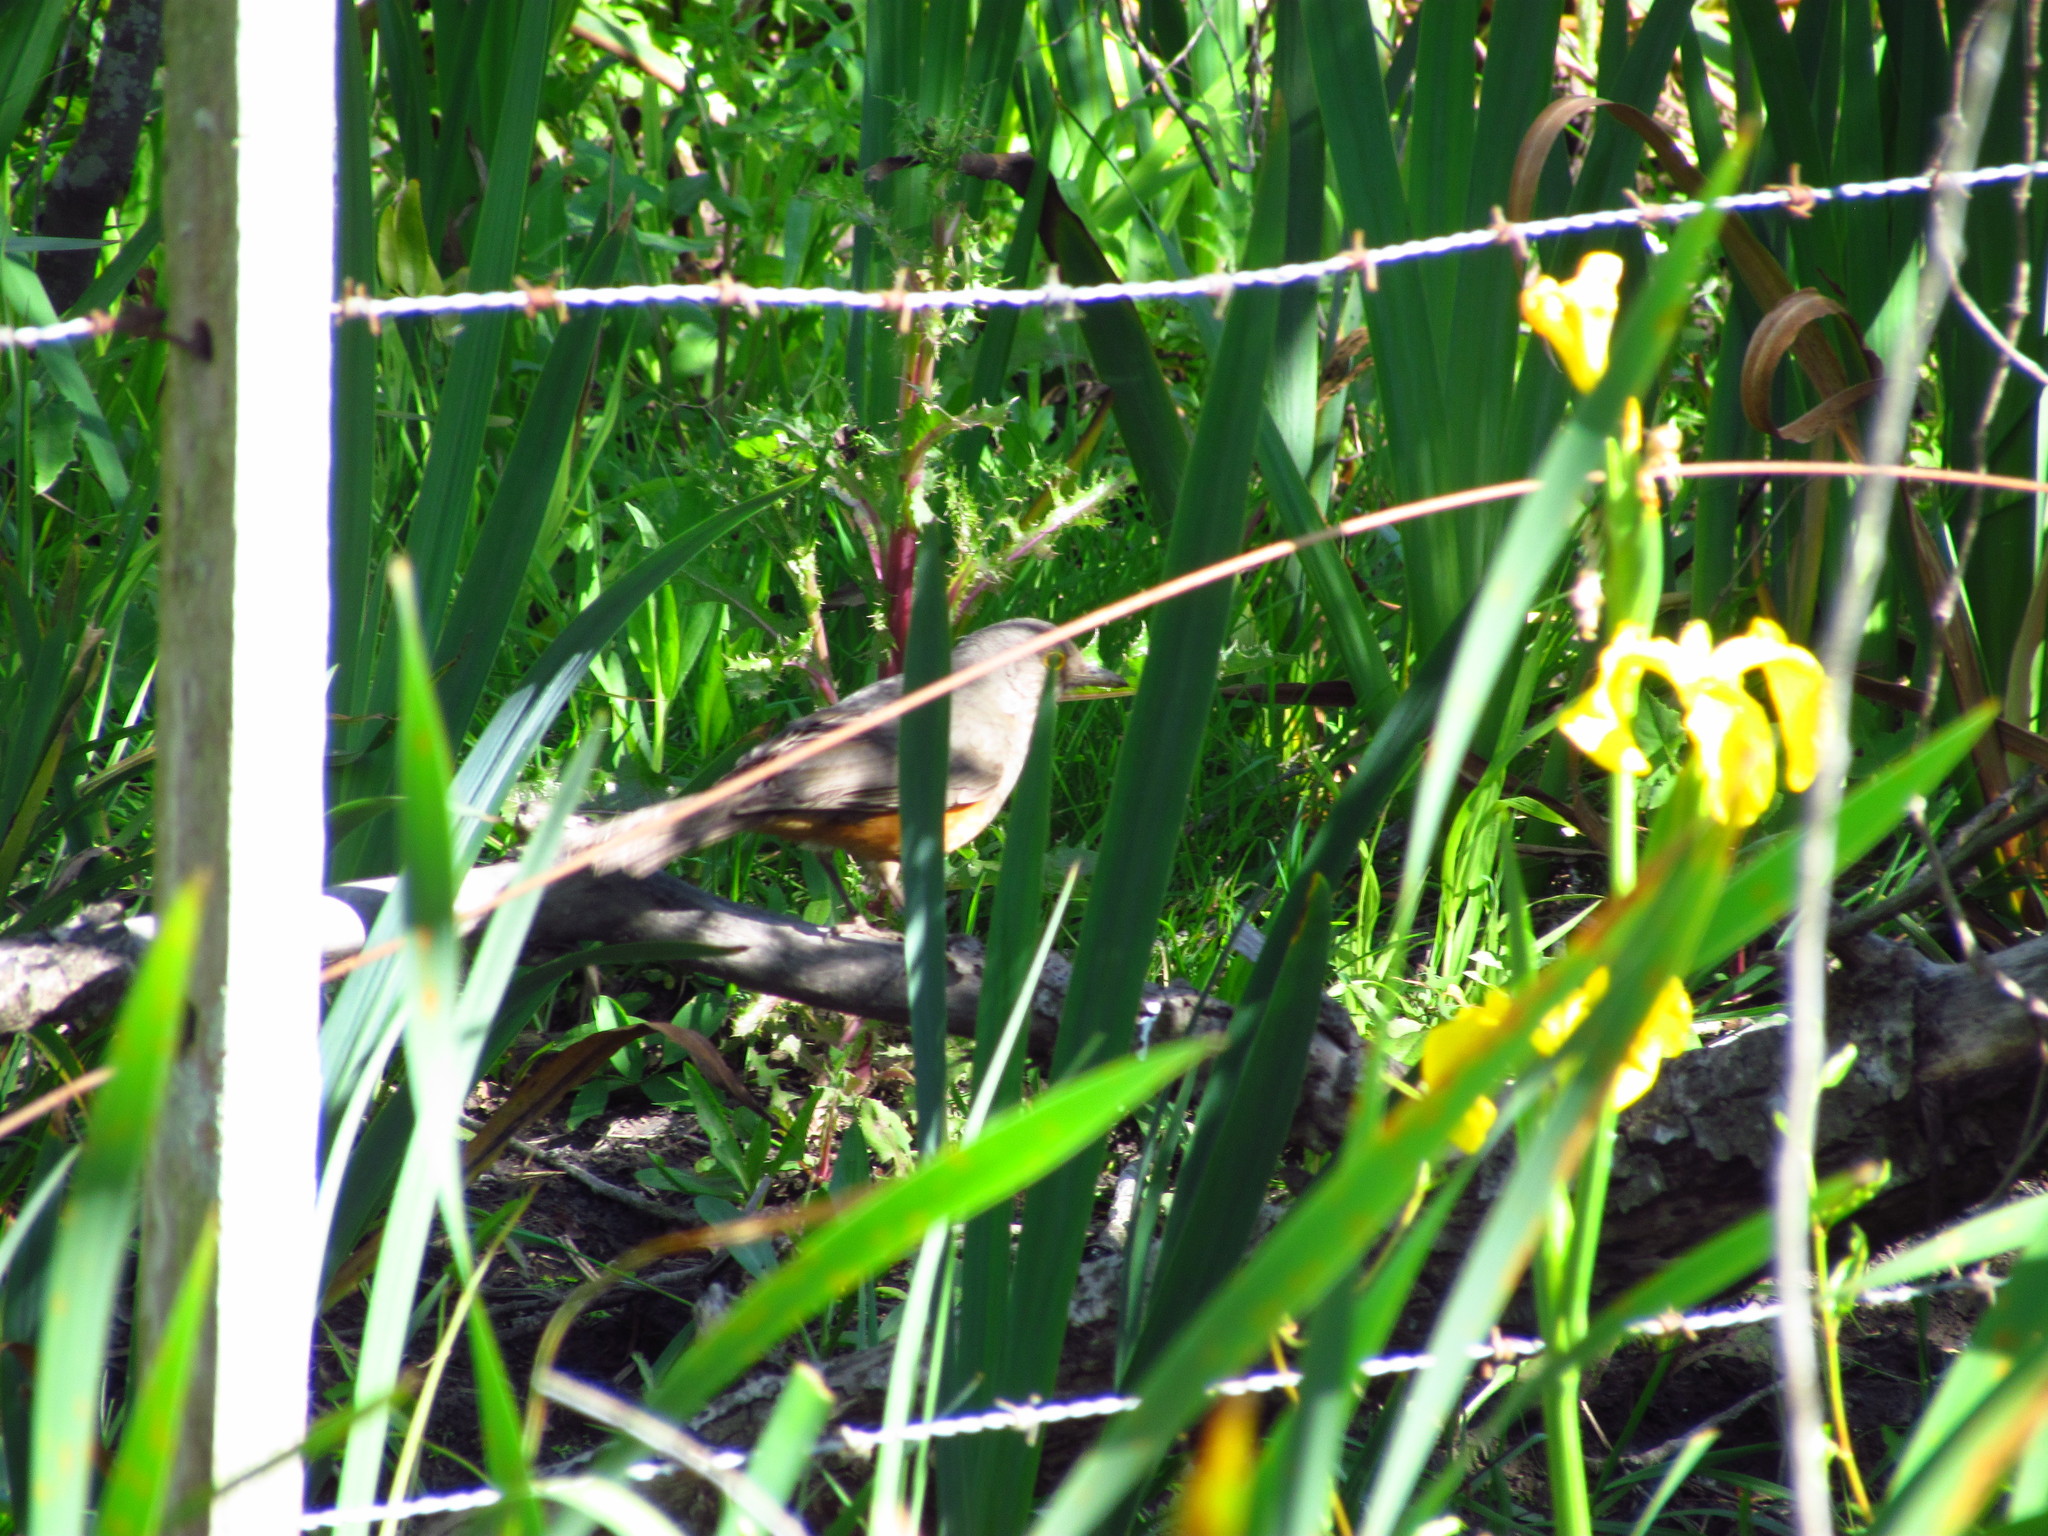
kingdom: Animalia
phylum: Chordata
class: Aves
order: Passeriformes
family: Turdidae
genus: Turdus
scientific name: Turdus rufiventris
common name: Rufous-bellied thrush
